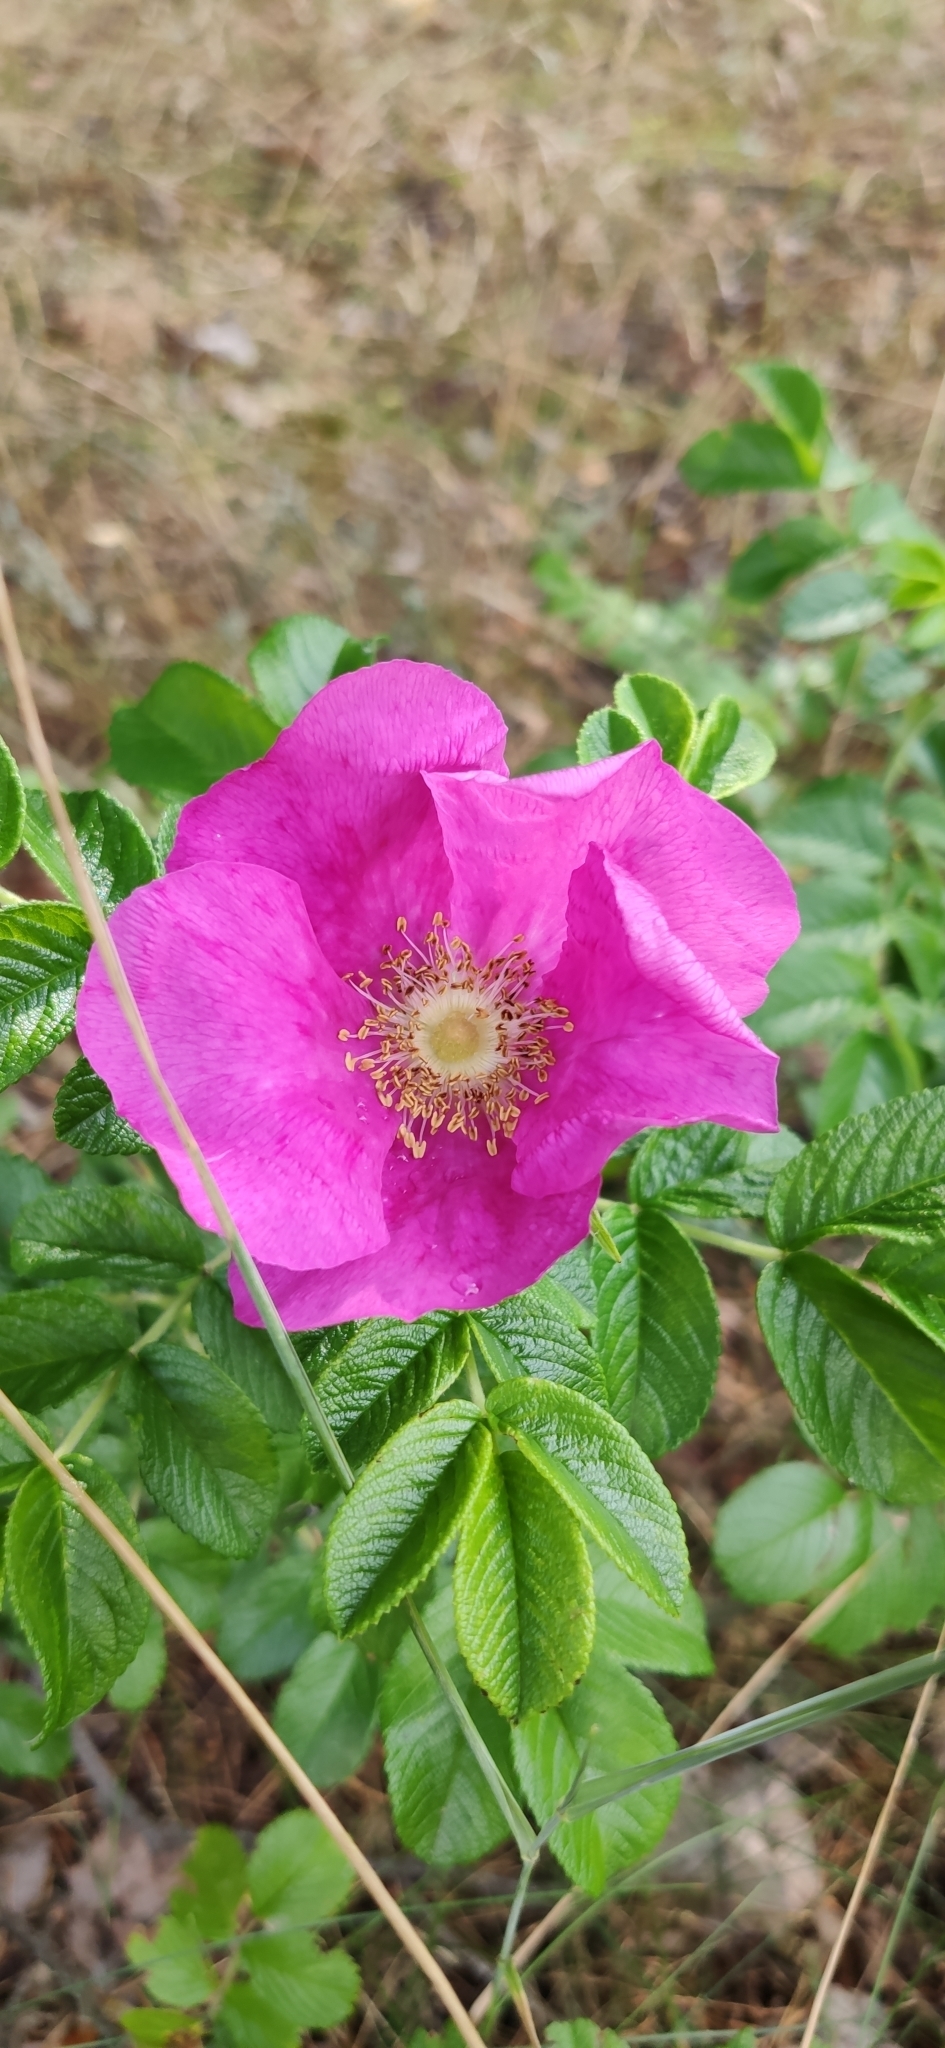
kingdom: Plantae
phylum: Tracheophyta
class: Magnoliopsida
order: Rosales
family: Rosaceae
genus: Rosa
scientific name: Rosa rugosa
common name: Japanese rose
